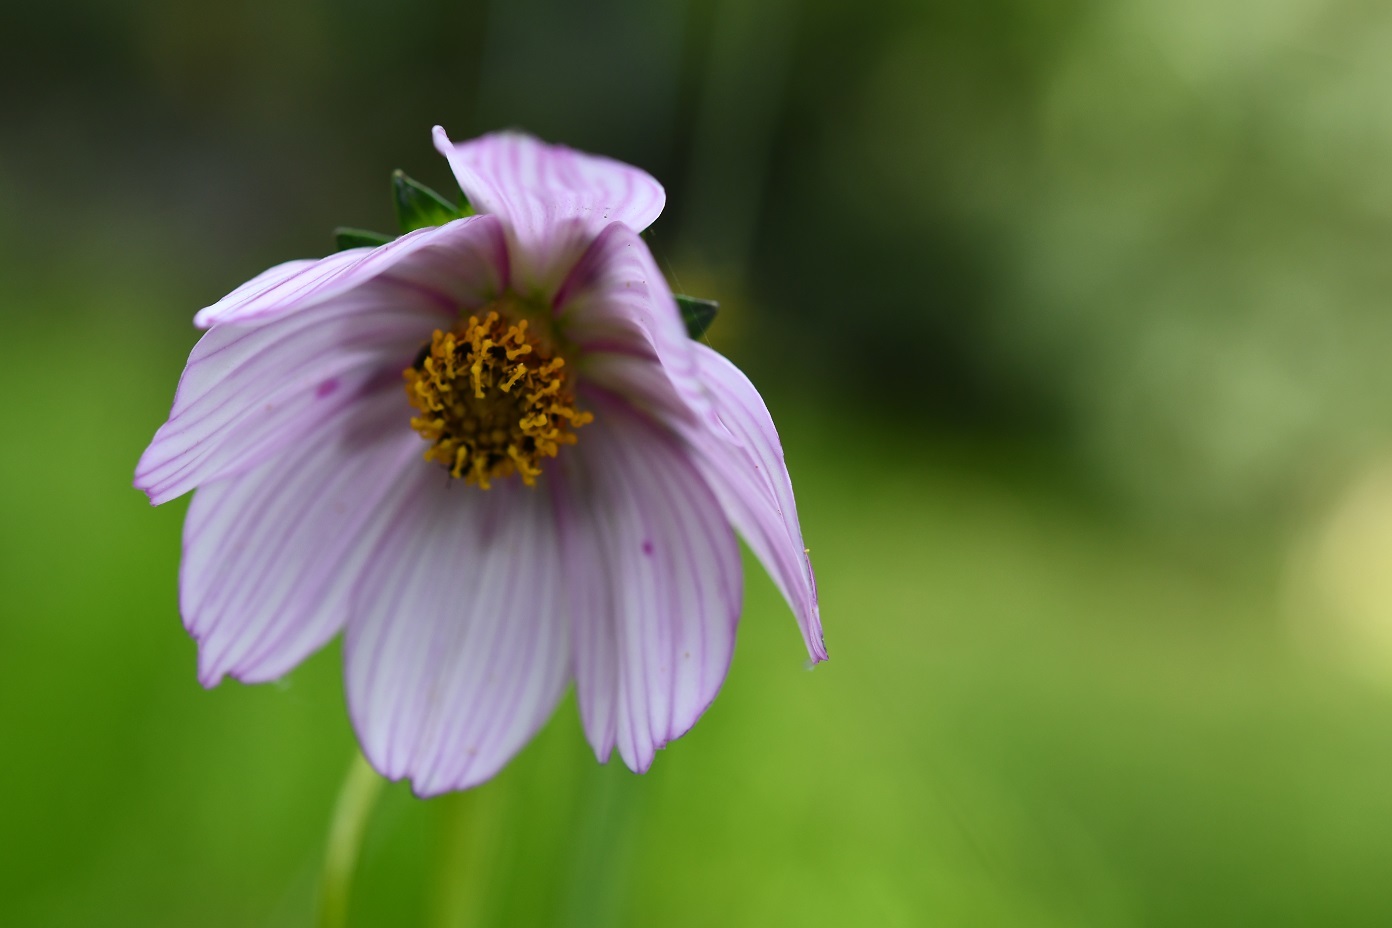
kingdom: Plantae
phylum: Tracheophyta
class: Magnoliopsida
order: Asterales
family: Asteraceae
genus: Cosmos
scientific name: Cosmos diversifolius
